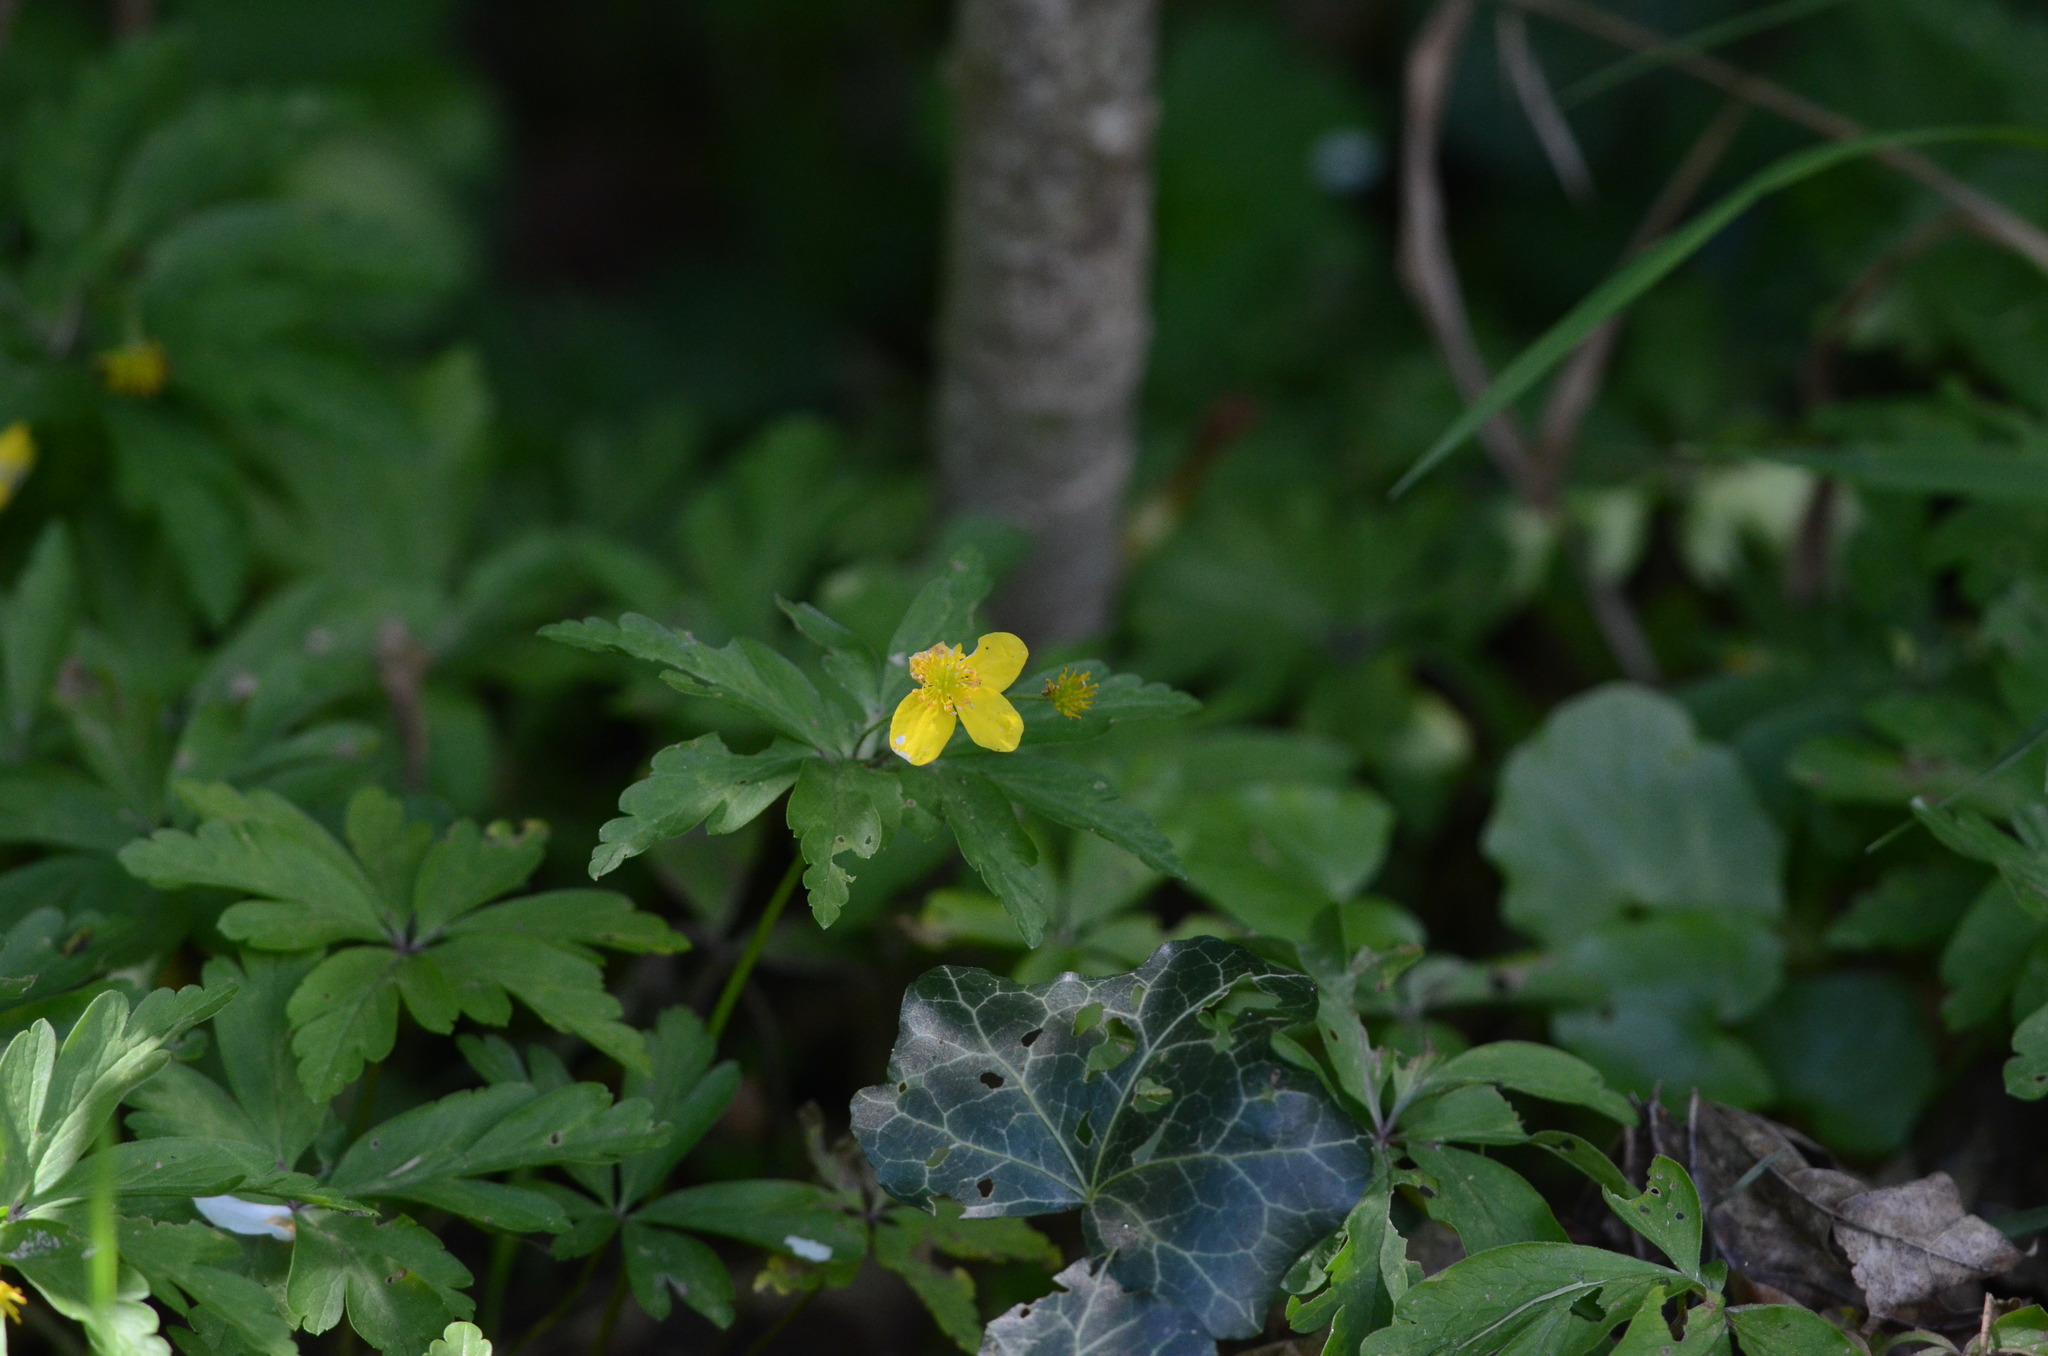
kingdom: Plantae
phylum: Tracheophyta
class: Magnoliopsida
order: Ranunculales
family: Ranunculaceae
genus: Anemone
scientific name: Anemone ranunculoides
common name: Yellow anemone
